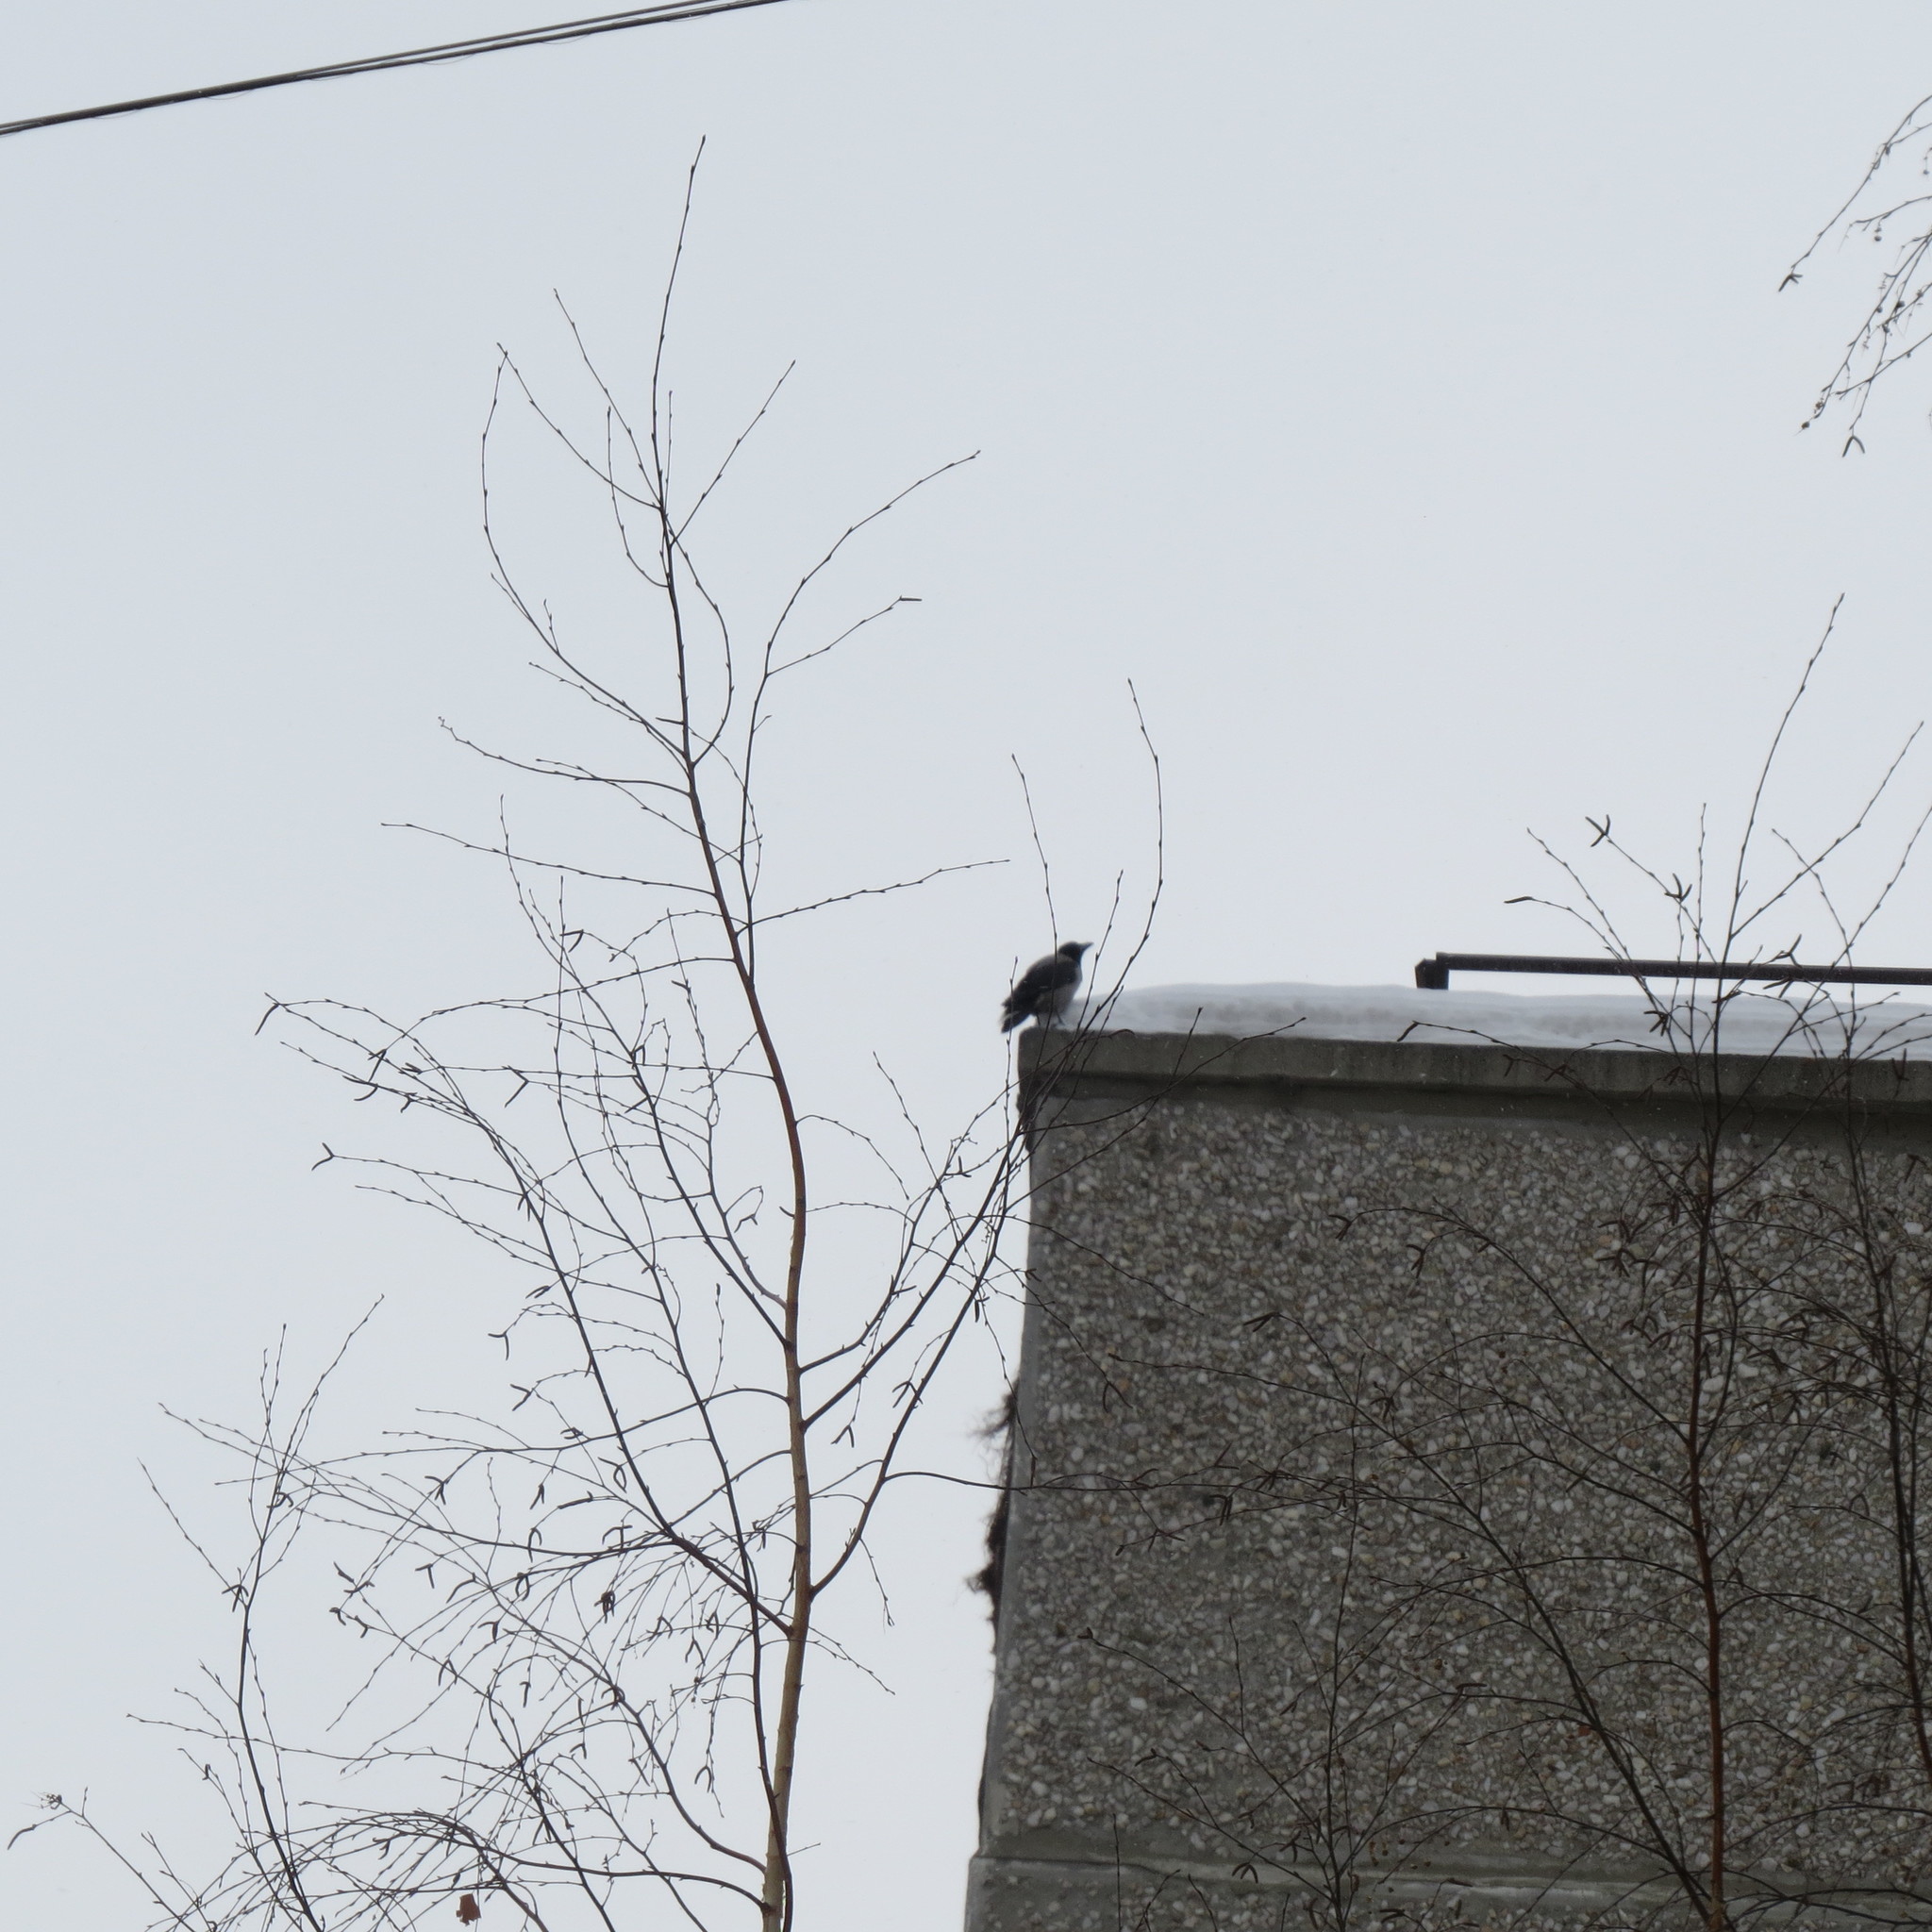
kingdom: Animalia
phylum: Chordata
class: Aves
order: Passeriformes
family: Corvidae
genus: Corvus
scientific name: Corvus cornix
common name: Hooded crow
